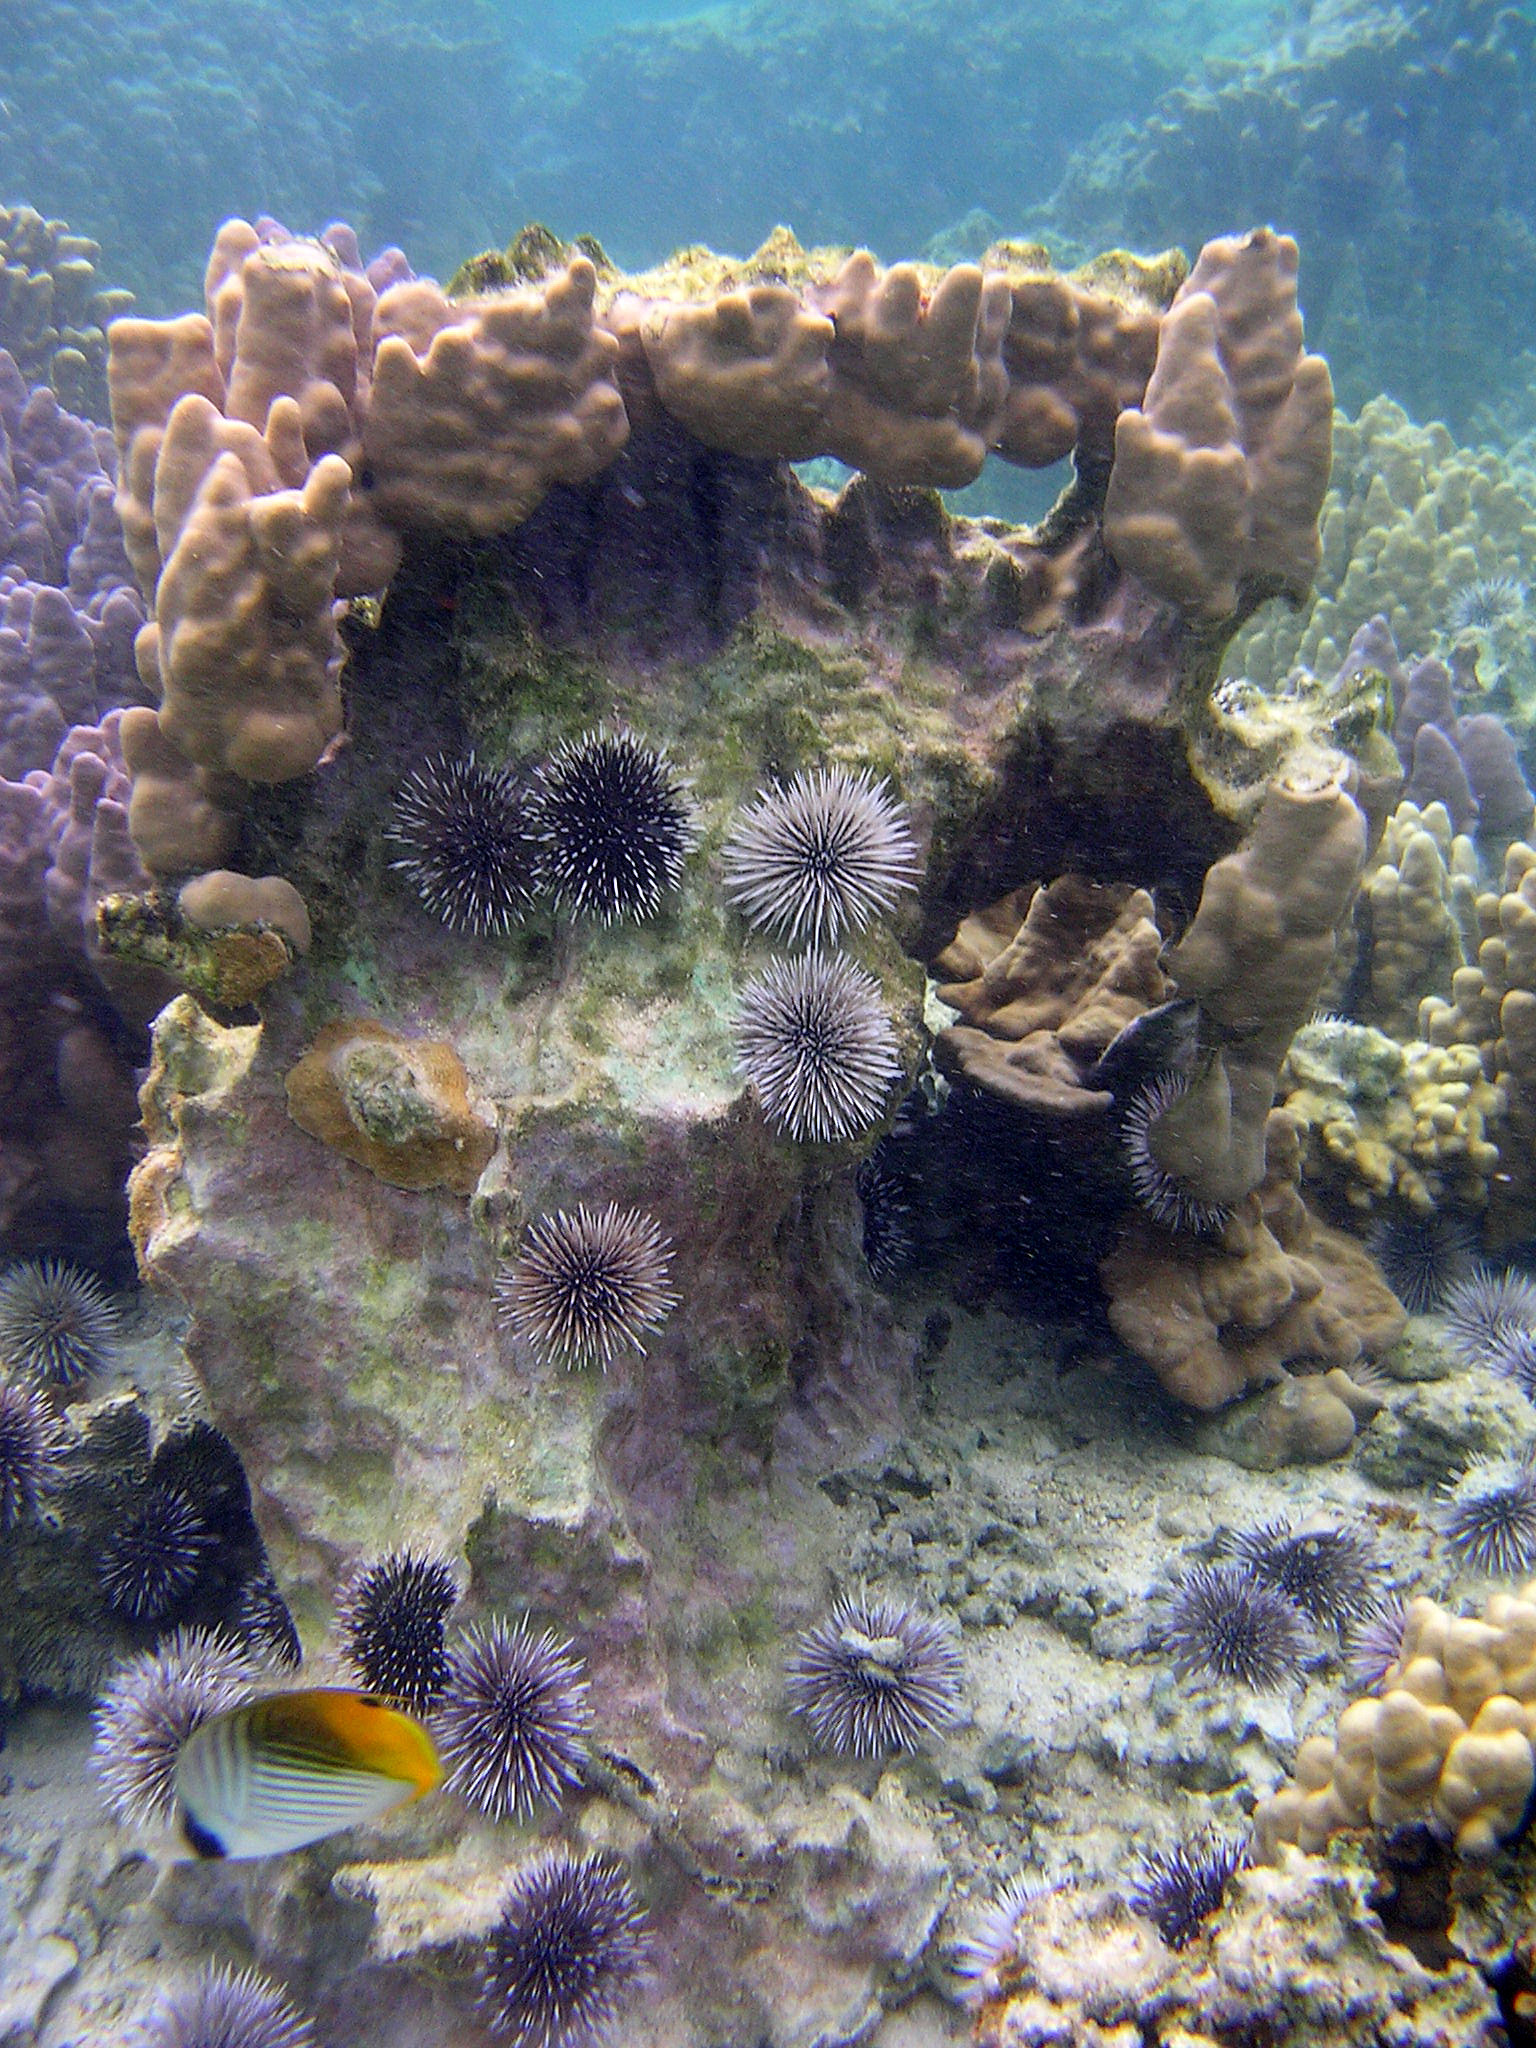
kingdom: Animalia
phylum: Echinodermata
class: Echinoidea
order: Camarodonta
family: Echinometridae
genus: Echinometra
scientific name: Echinometra mathaei
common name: Rock-boring urchin
